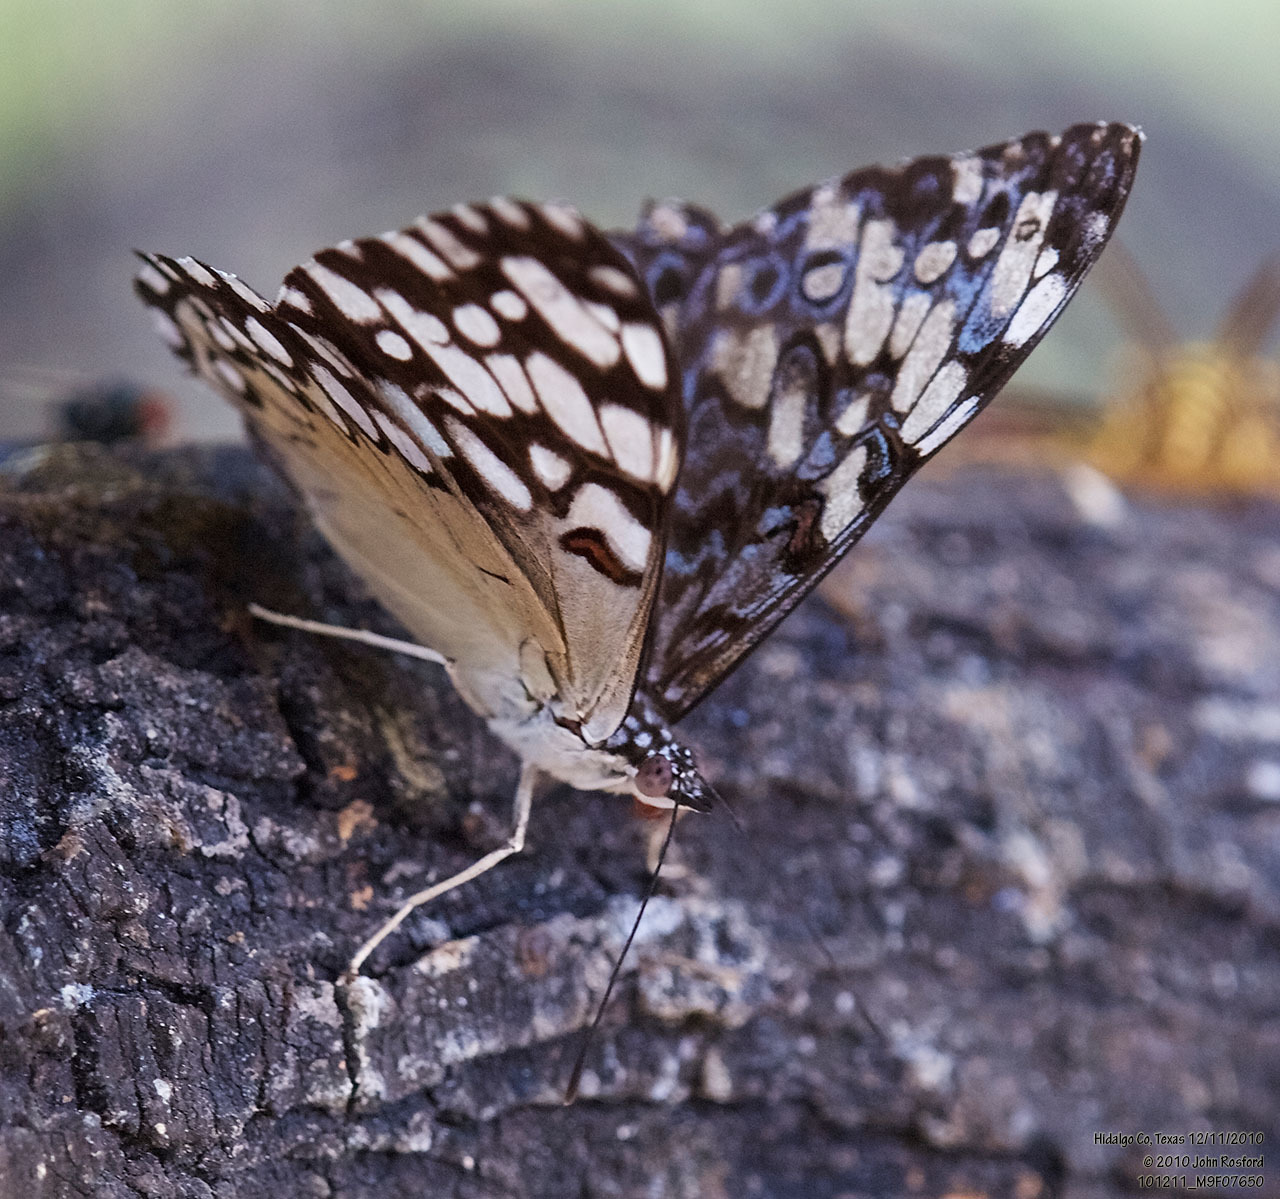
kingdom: Animalia
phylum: Arthropoda
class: Insecta
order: Lepidoptera
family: Nymphalidae
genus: Hamadryas
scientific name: Hamadryas guatemalena
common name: Guatemalan cracker
